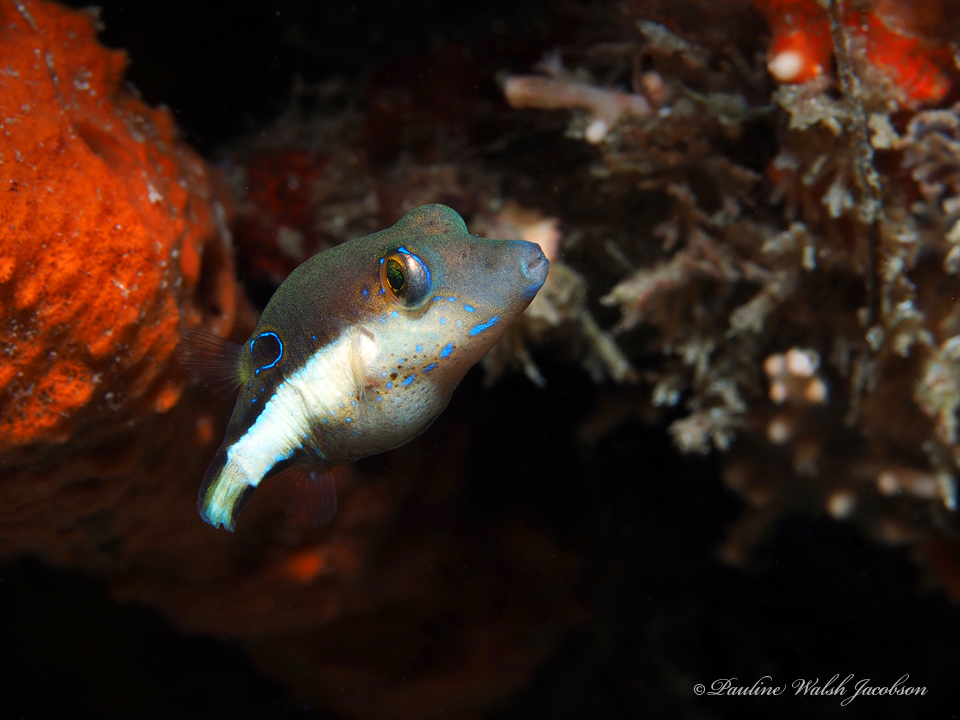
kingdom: Animalia
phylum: Chordata
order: Tetraodontiformes
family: Tetraodontidae
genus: Canthigaster
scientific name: Canthigaster rostrata
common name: Caribbean sharpnose-puffer
